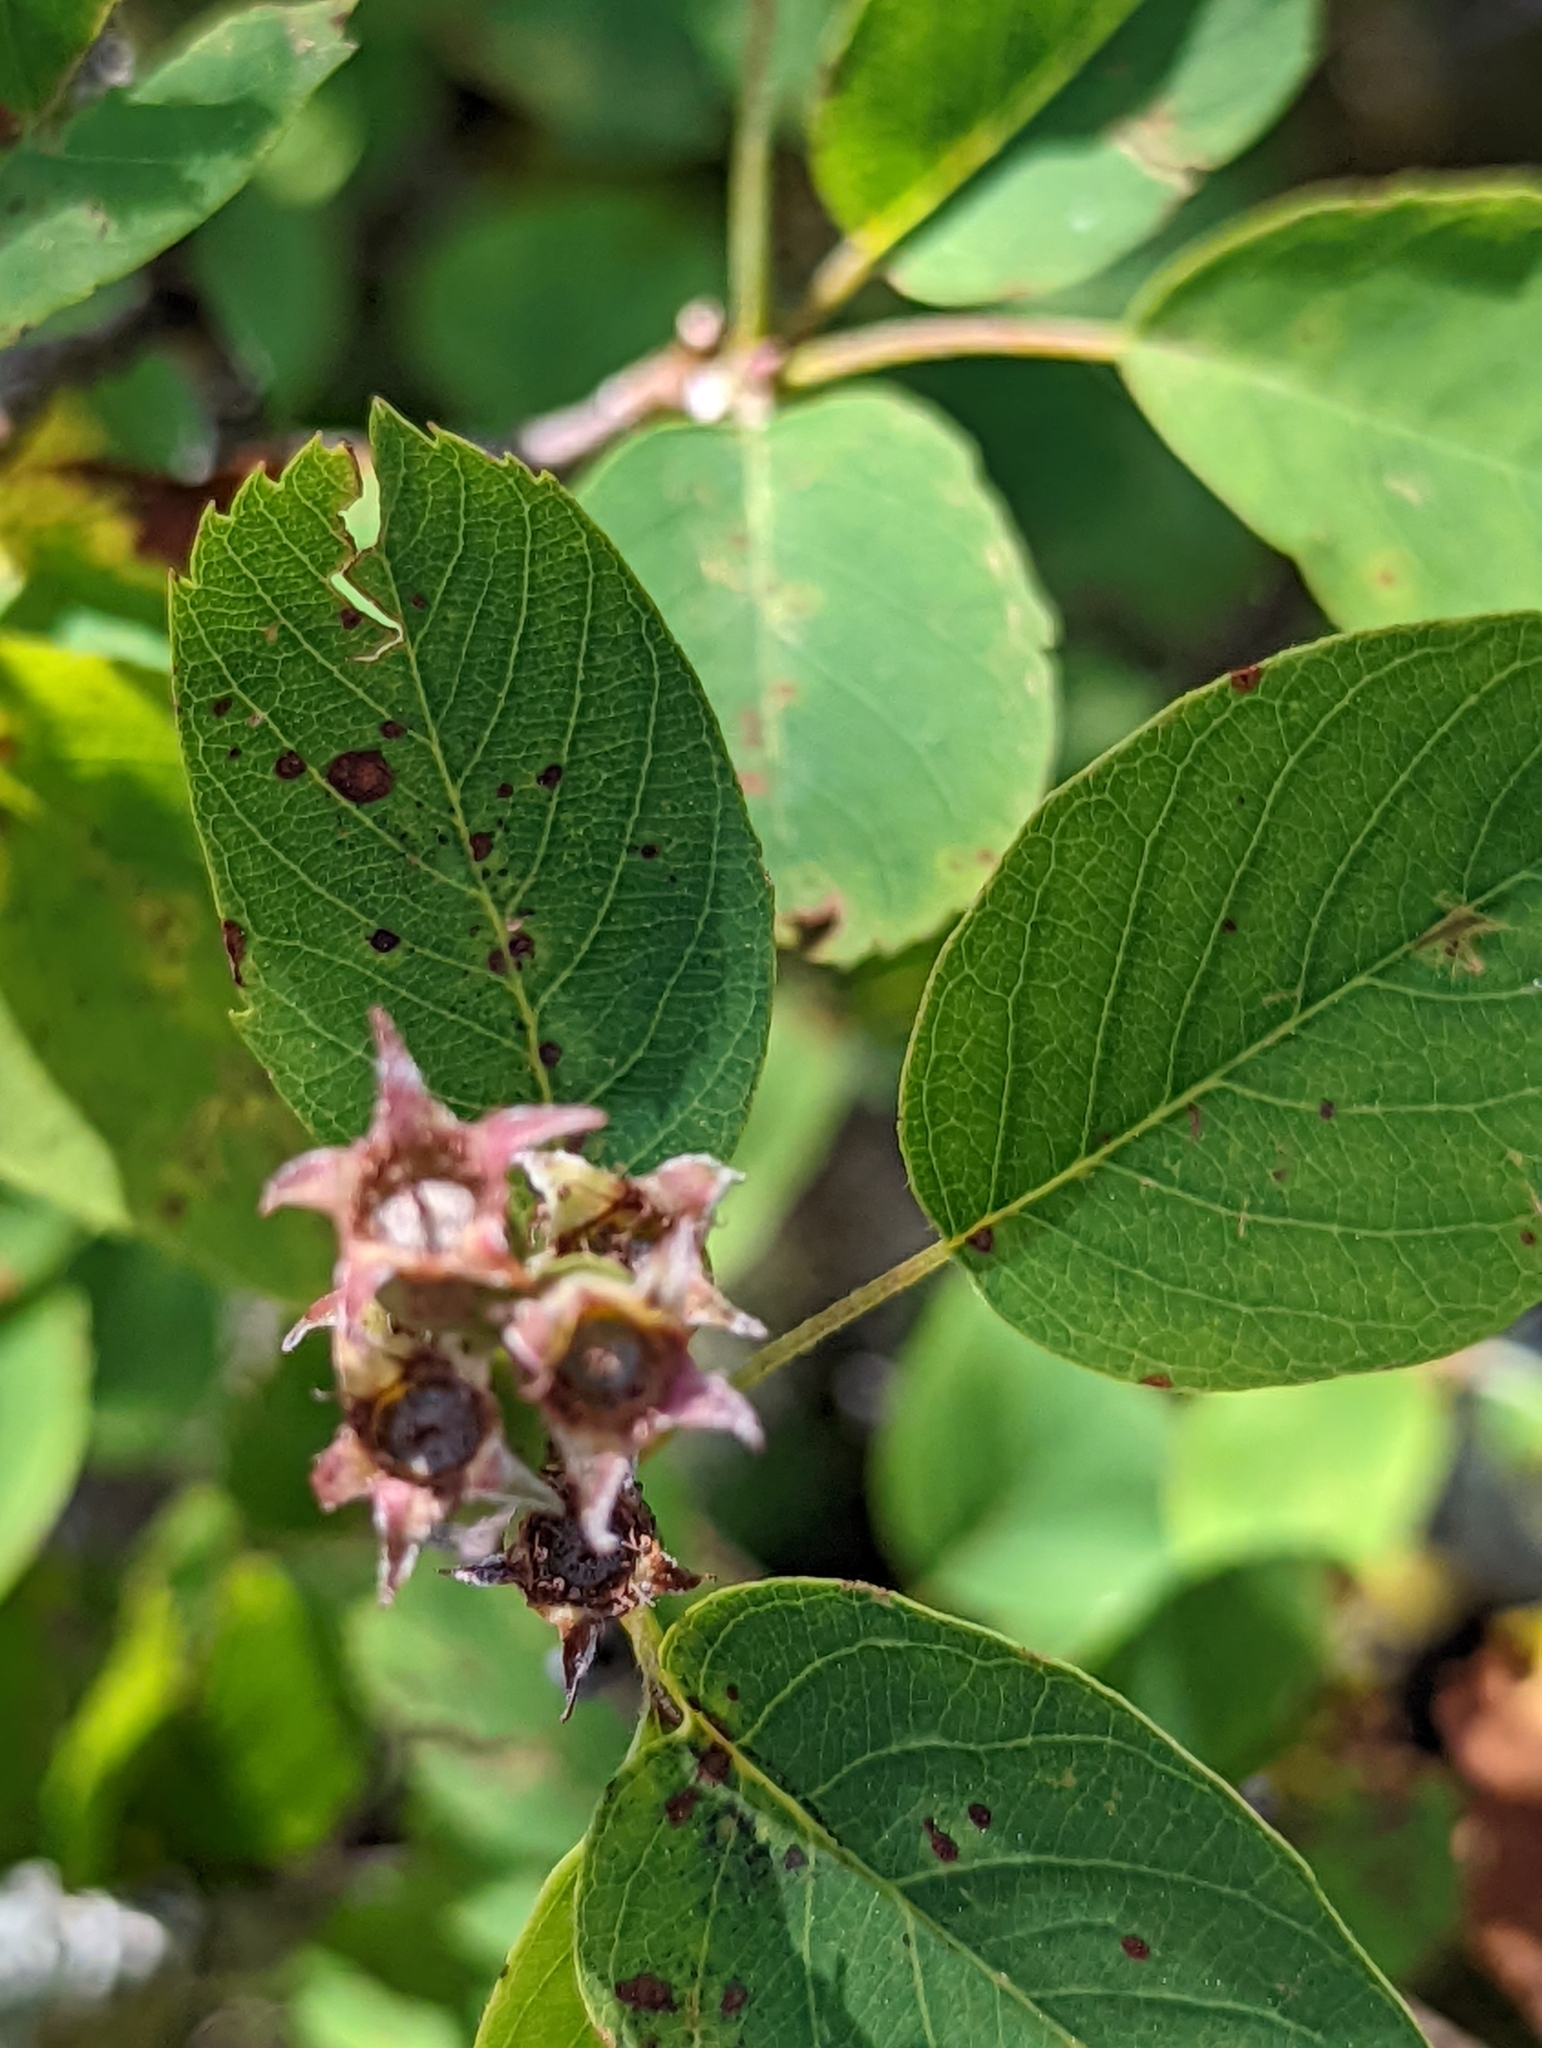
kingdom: Plantae
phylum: Tracheophyta
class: Magnoliopsida
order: Rosales
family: Rosaceae
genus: Amelanchier
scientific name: Amelanchier alnifolia
